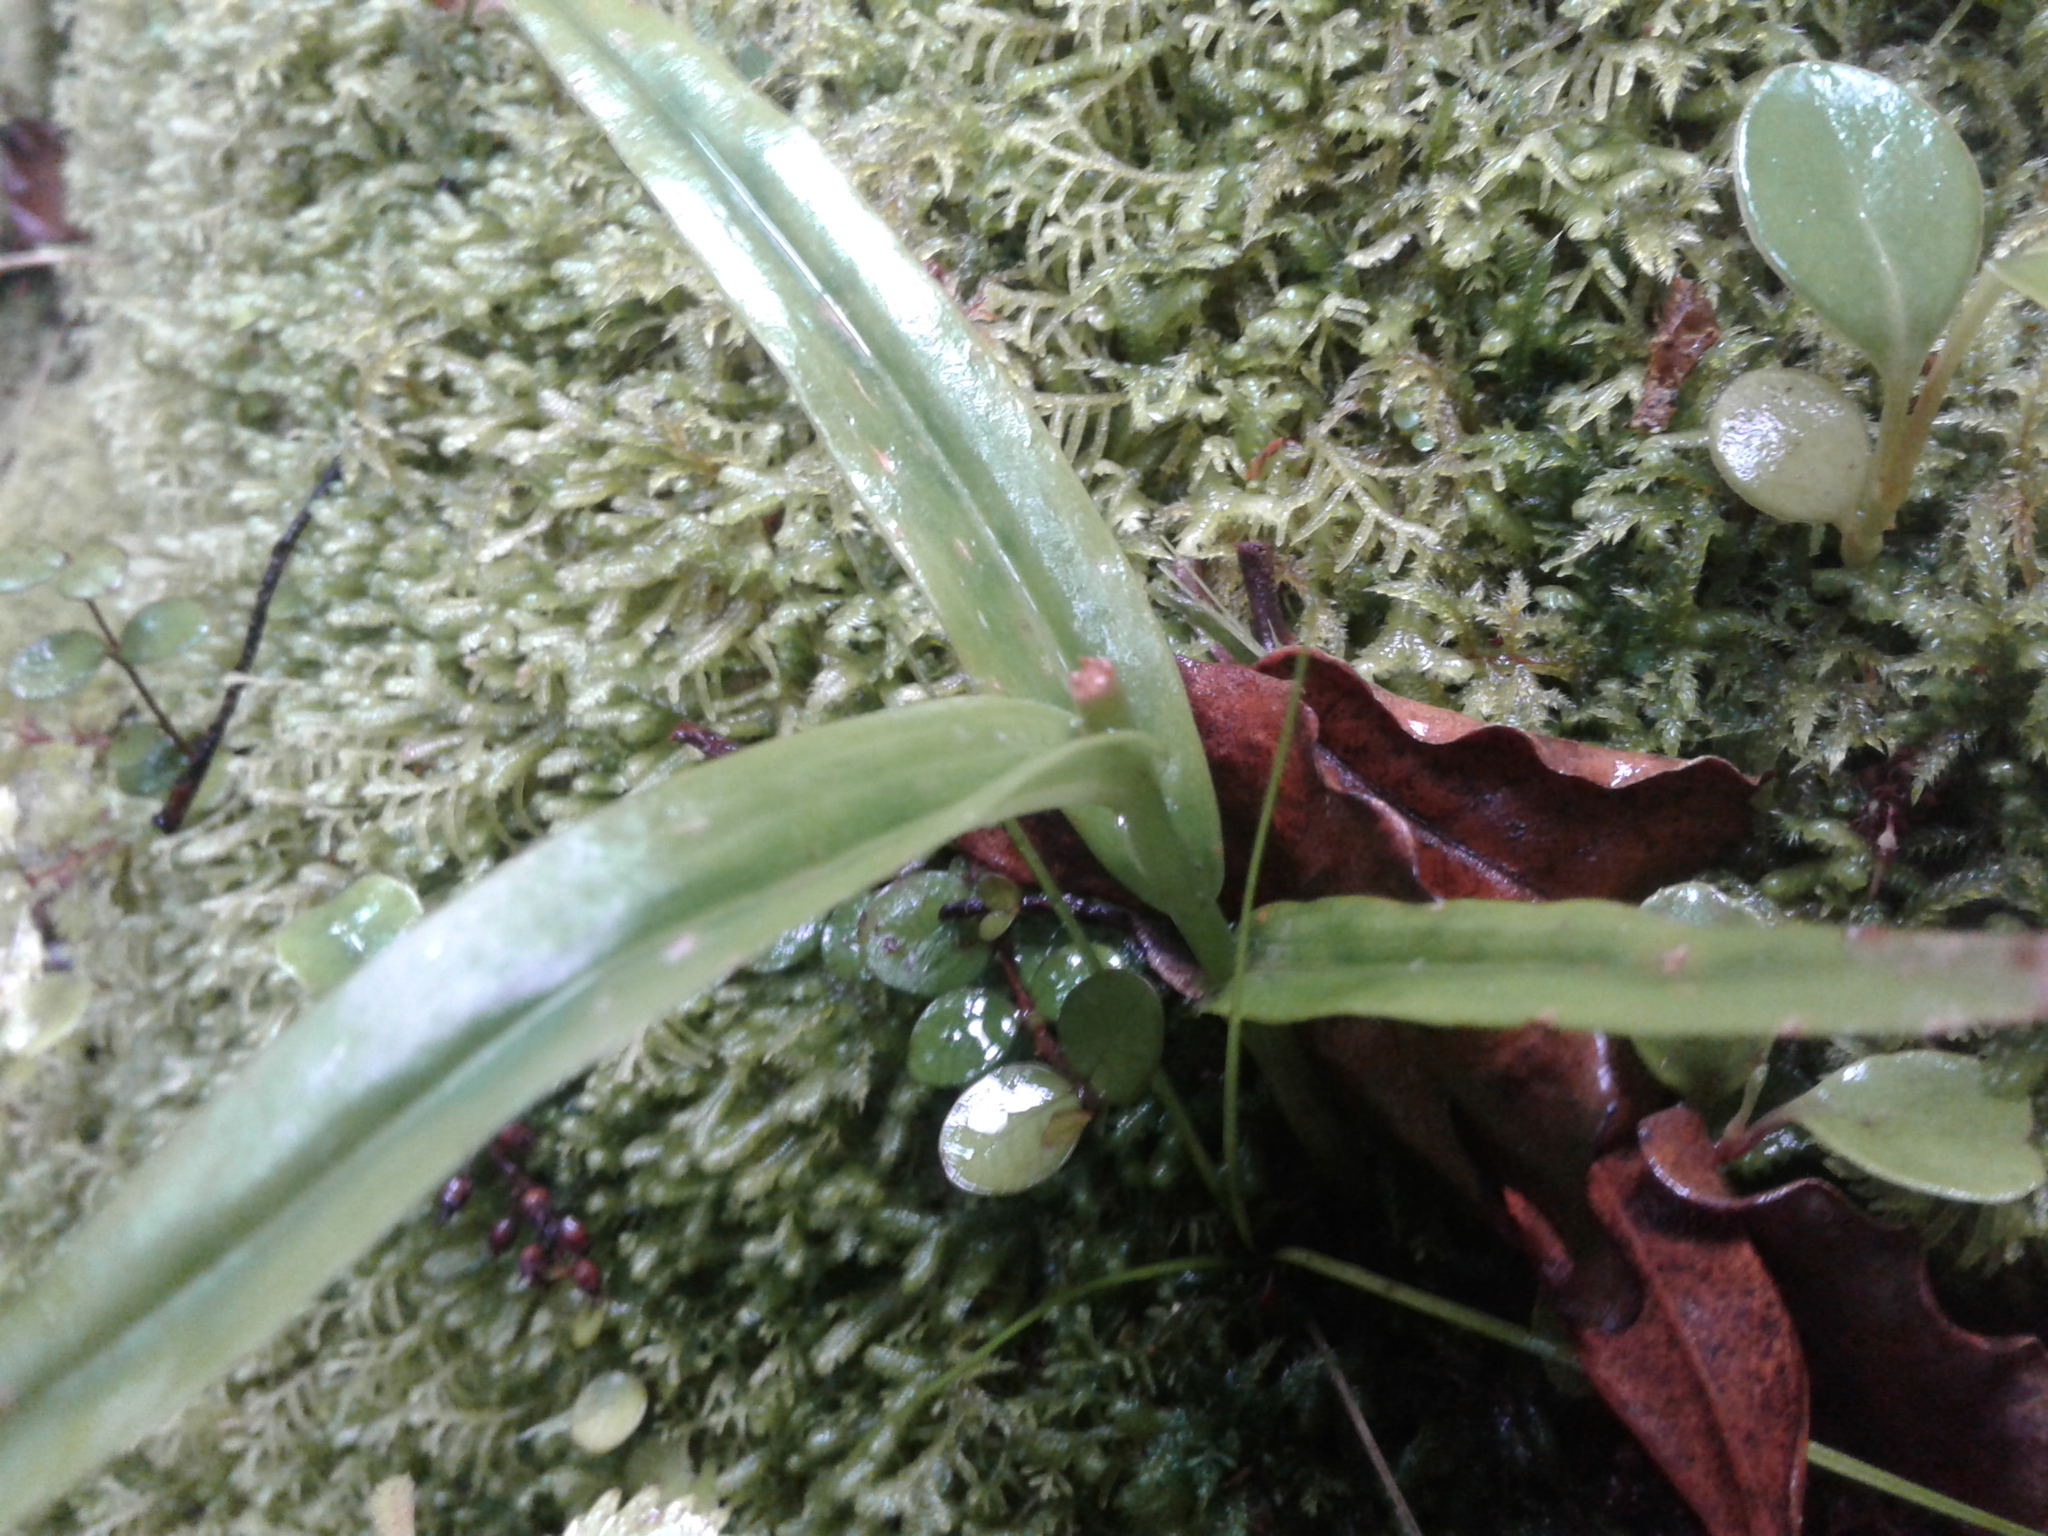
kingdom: Plantae
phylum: Tracheophyta
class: Liliopsida
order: Asparagales
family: Orchidaceae
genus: Pterostylis
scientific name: Pterostylis
